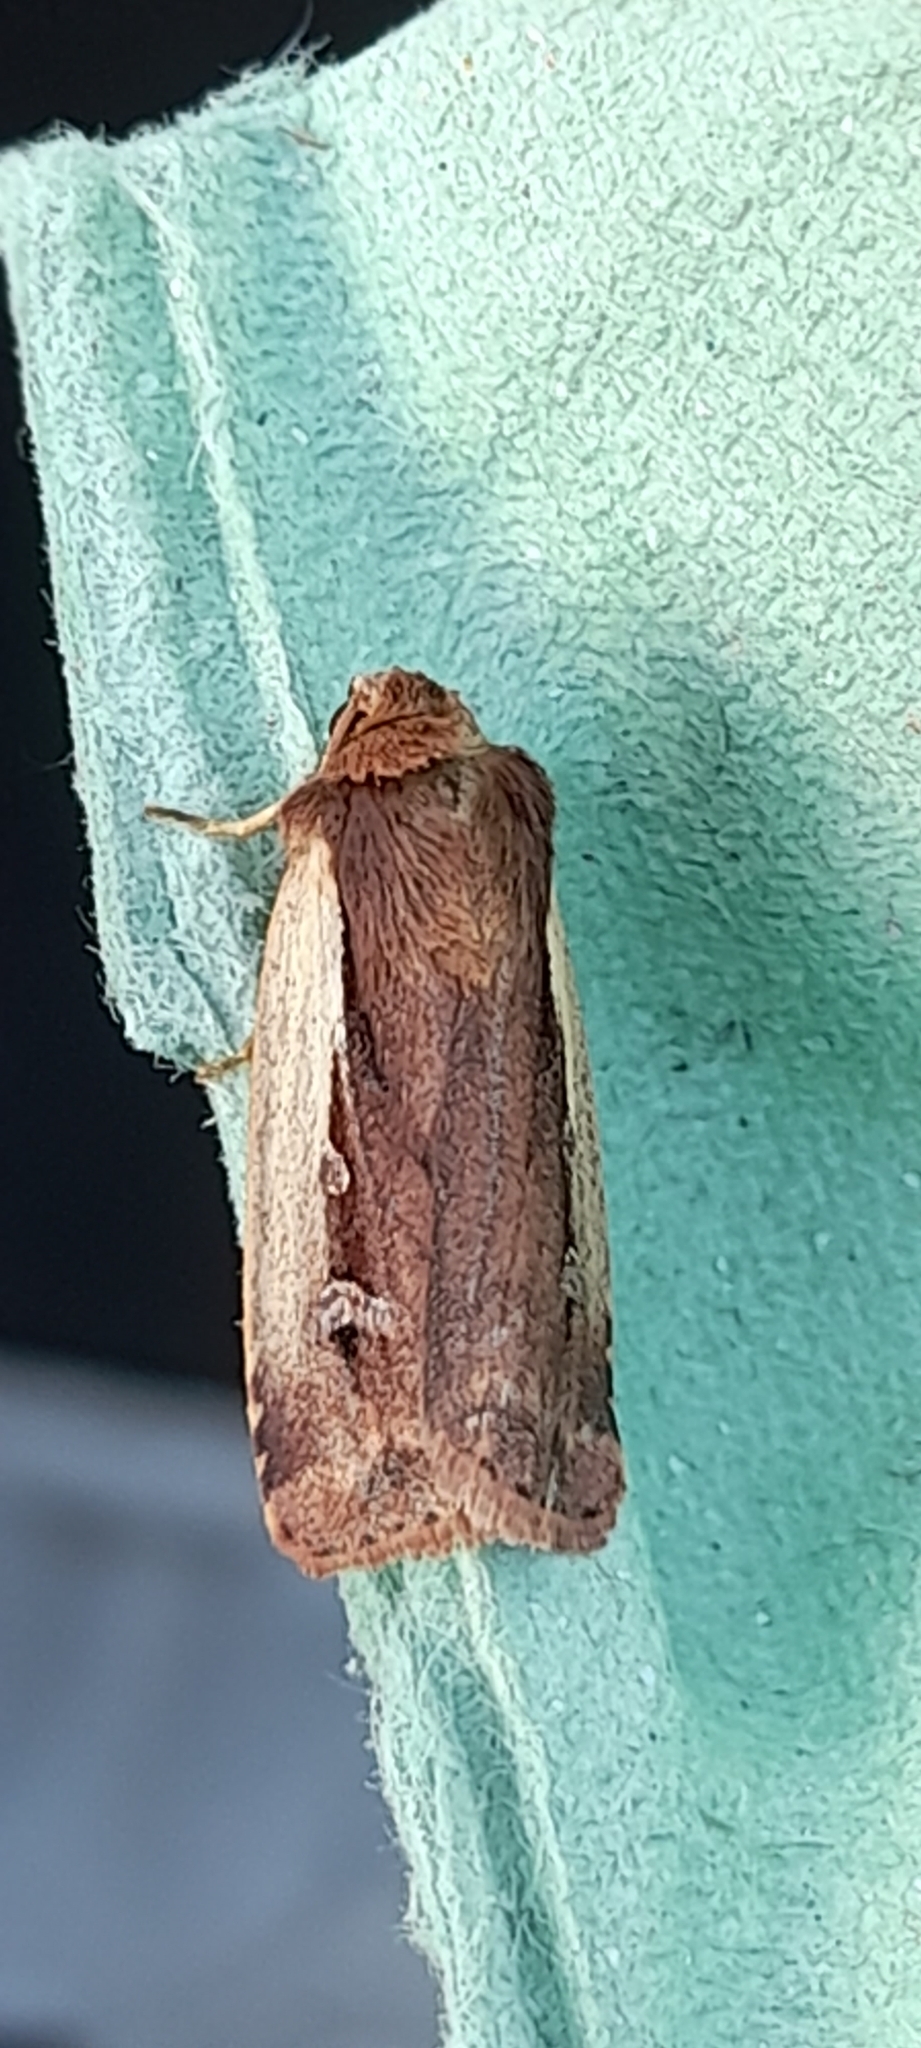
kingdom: Animalia
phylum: Arthropoda
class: Insecta
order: Lepidoptera
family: Noctuidae
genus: Ochropleura
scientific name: Ochropleura plecta
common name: Flame shoulder
